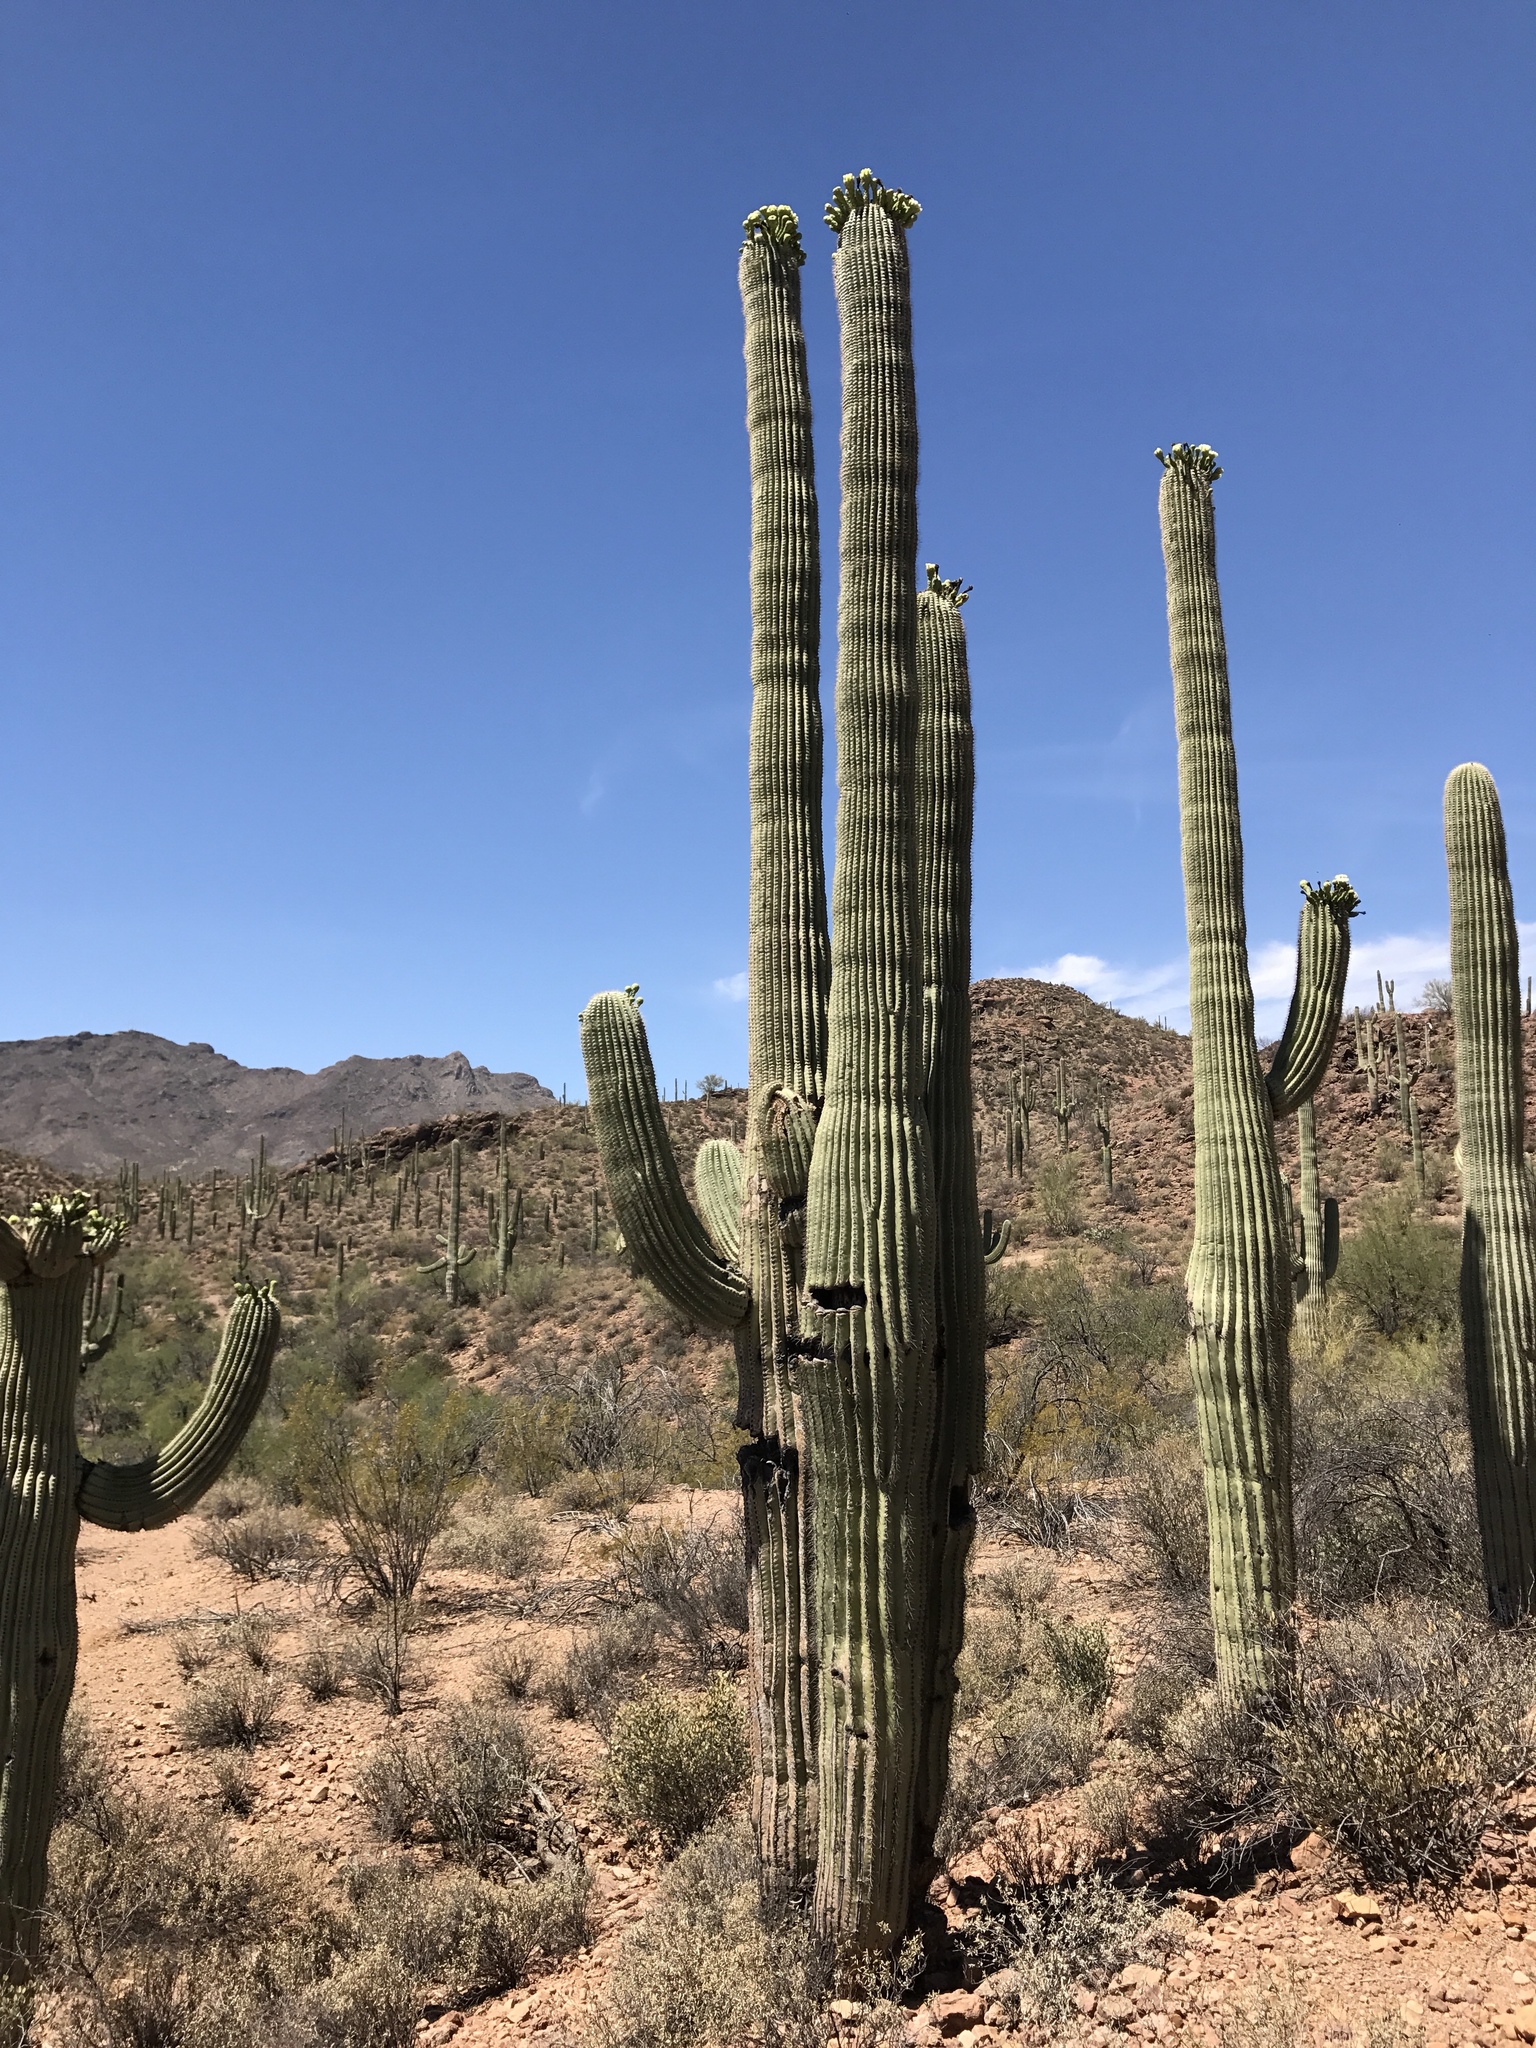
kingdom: Plantae
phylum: Tracheophyta
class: Magnoliopsida
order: Caryophyllales
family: Cactaceae
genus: Carnegiea
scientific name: Carnegiea gigantea
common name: Saguaro
